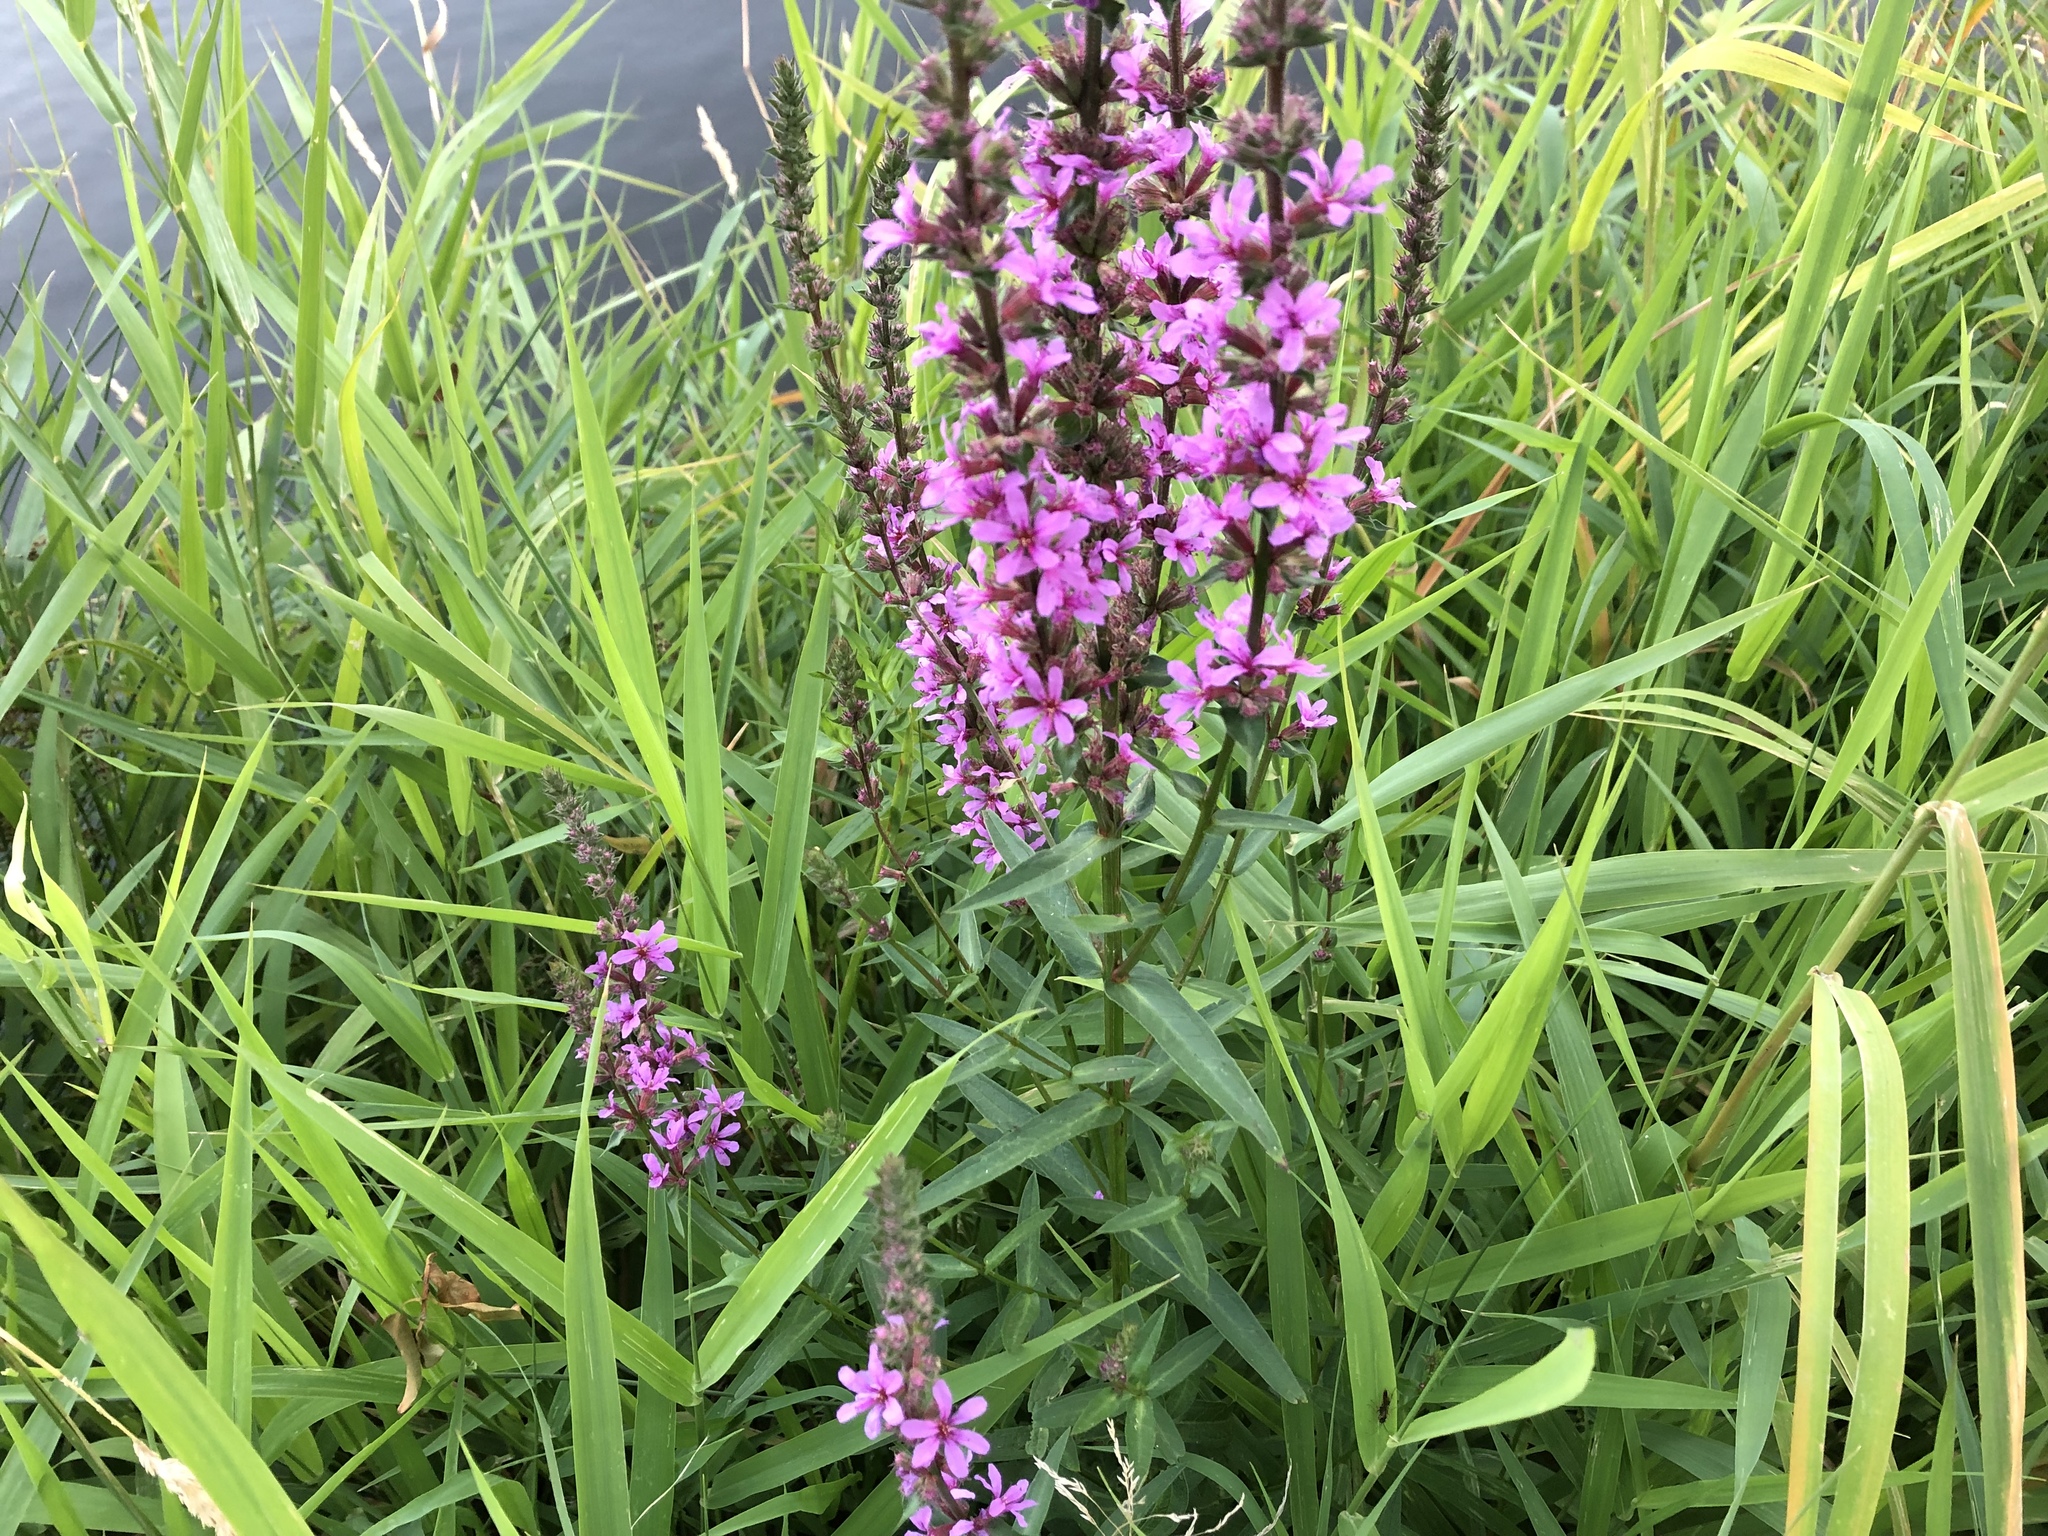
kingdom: Plantae
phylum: Tracheophyta
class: Magnoliopsida
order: Myrtales
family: Lythraceae
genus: Lythrum
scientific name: Lythrum salicaria
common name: Purple loosestrife
